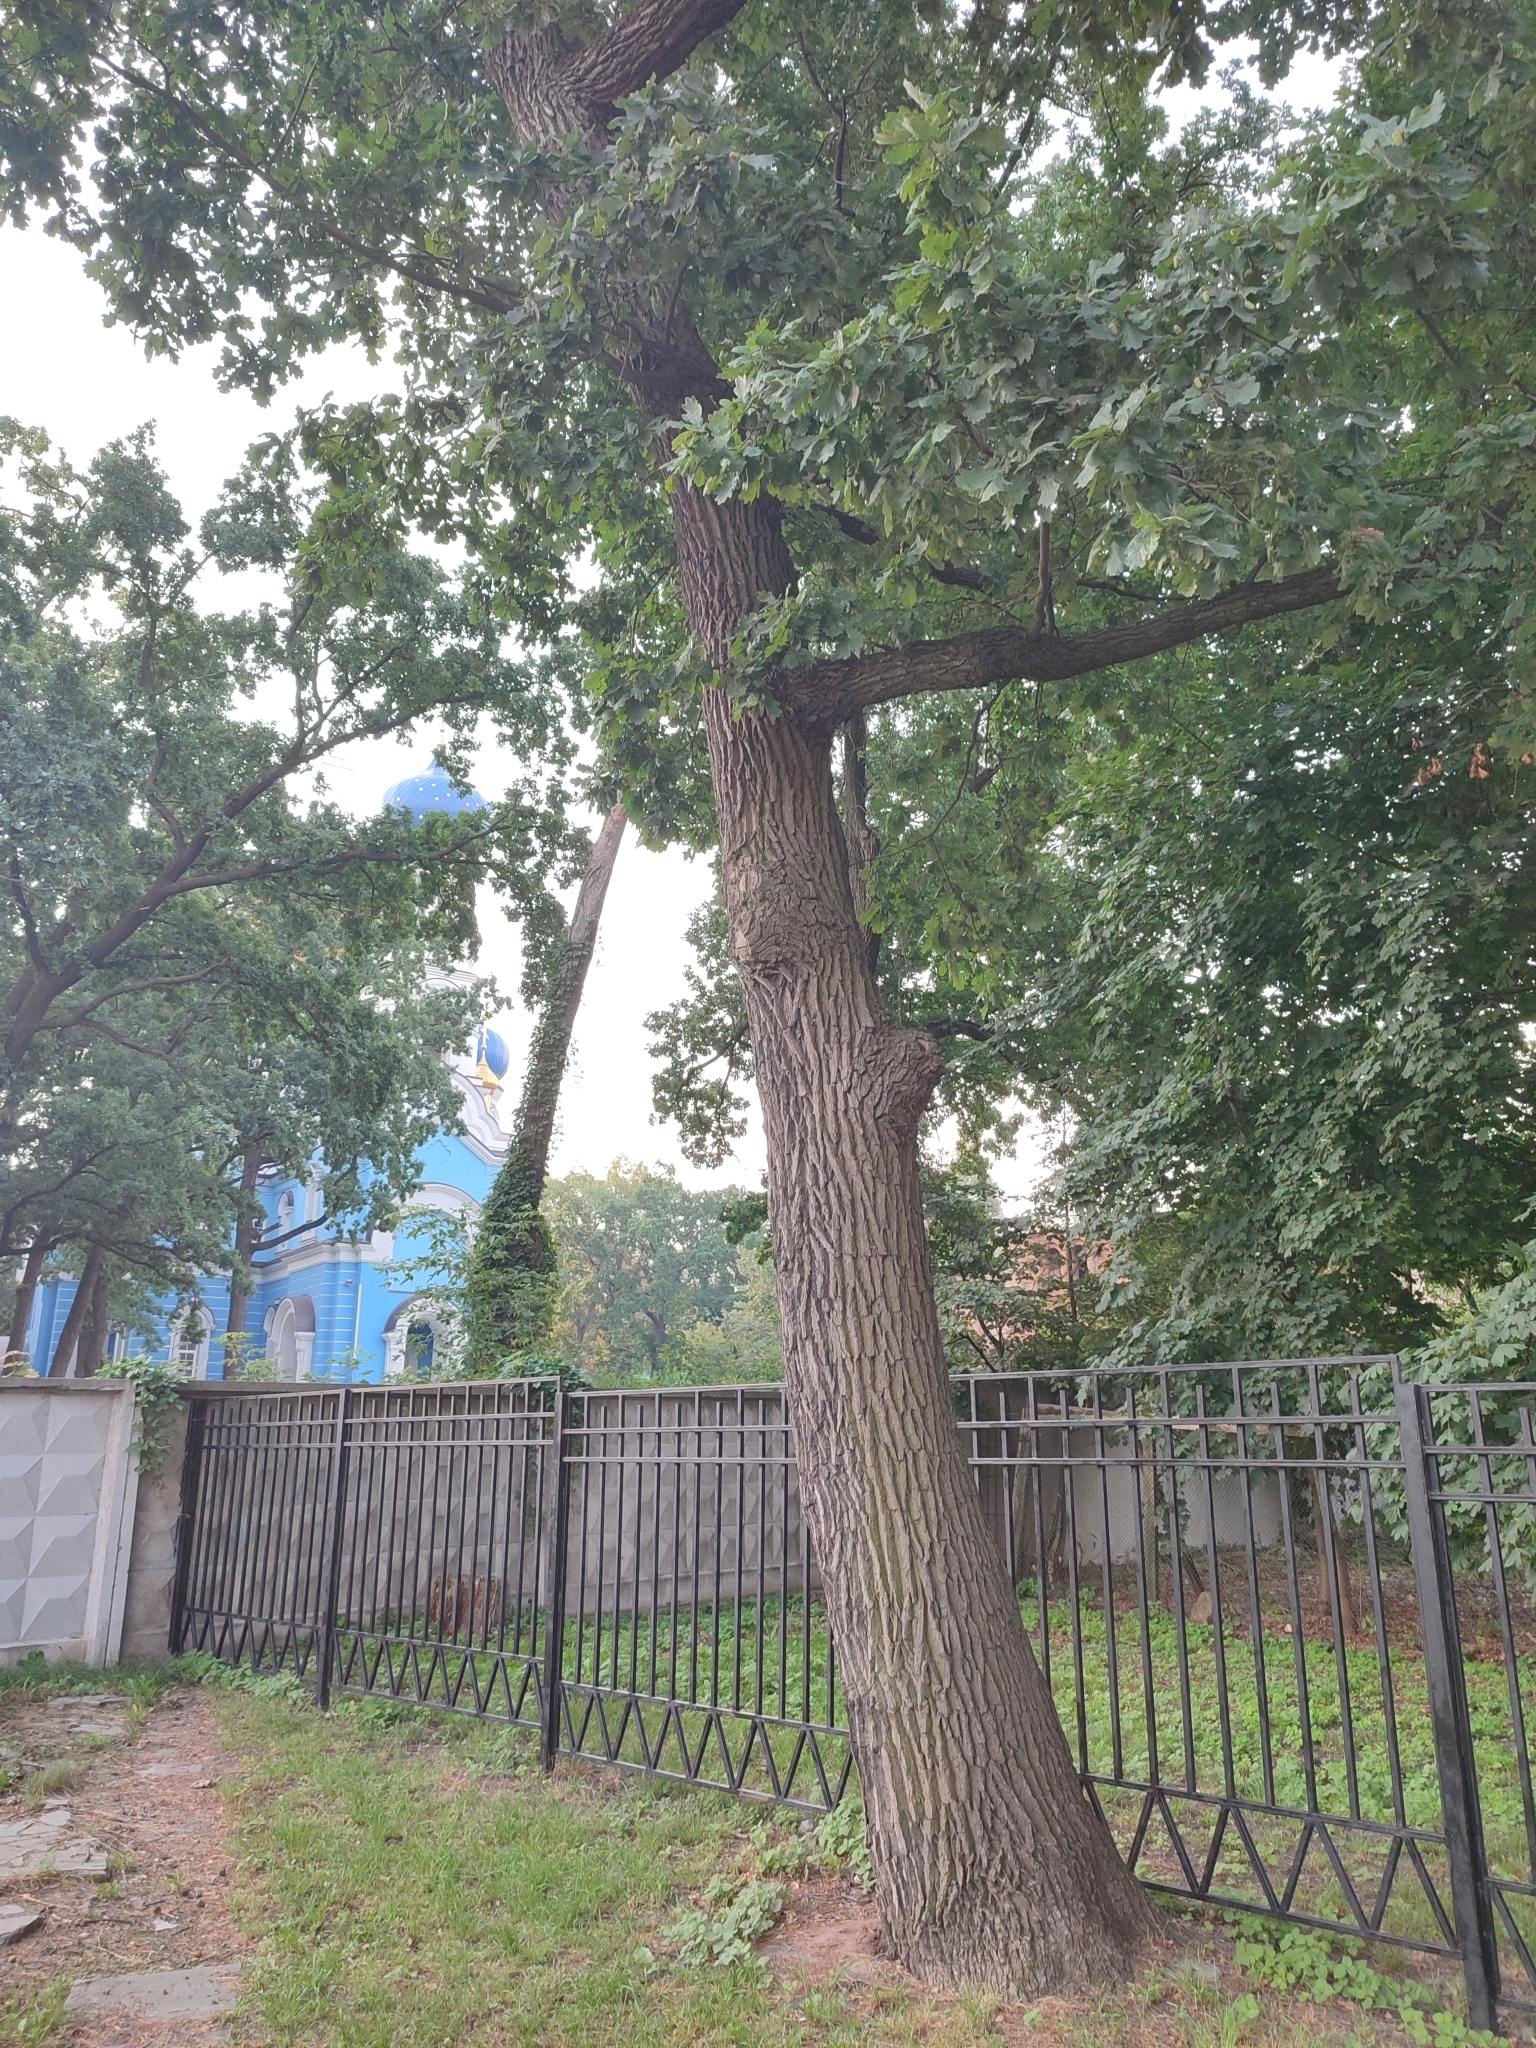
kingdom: Plantae
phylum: Tracheophyta
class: Magnoliopsida
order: Fagales
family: Fagaceae
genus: Quercus
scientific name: Quercus robur
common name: Pedunculate oak
